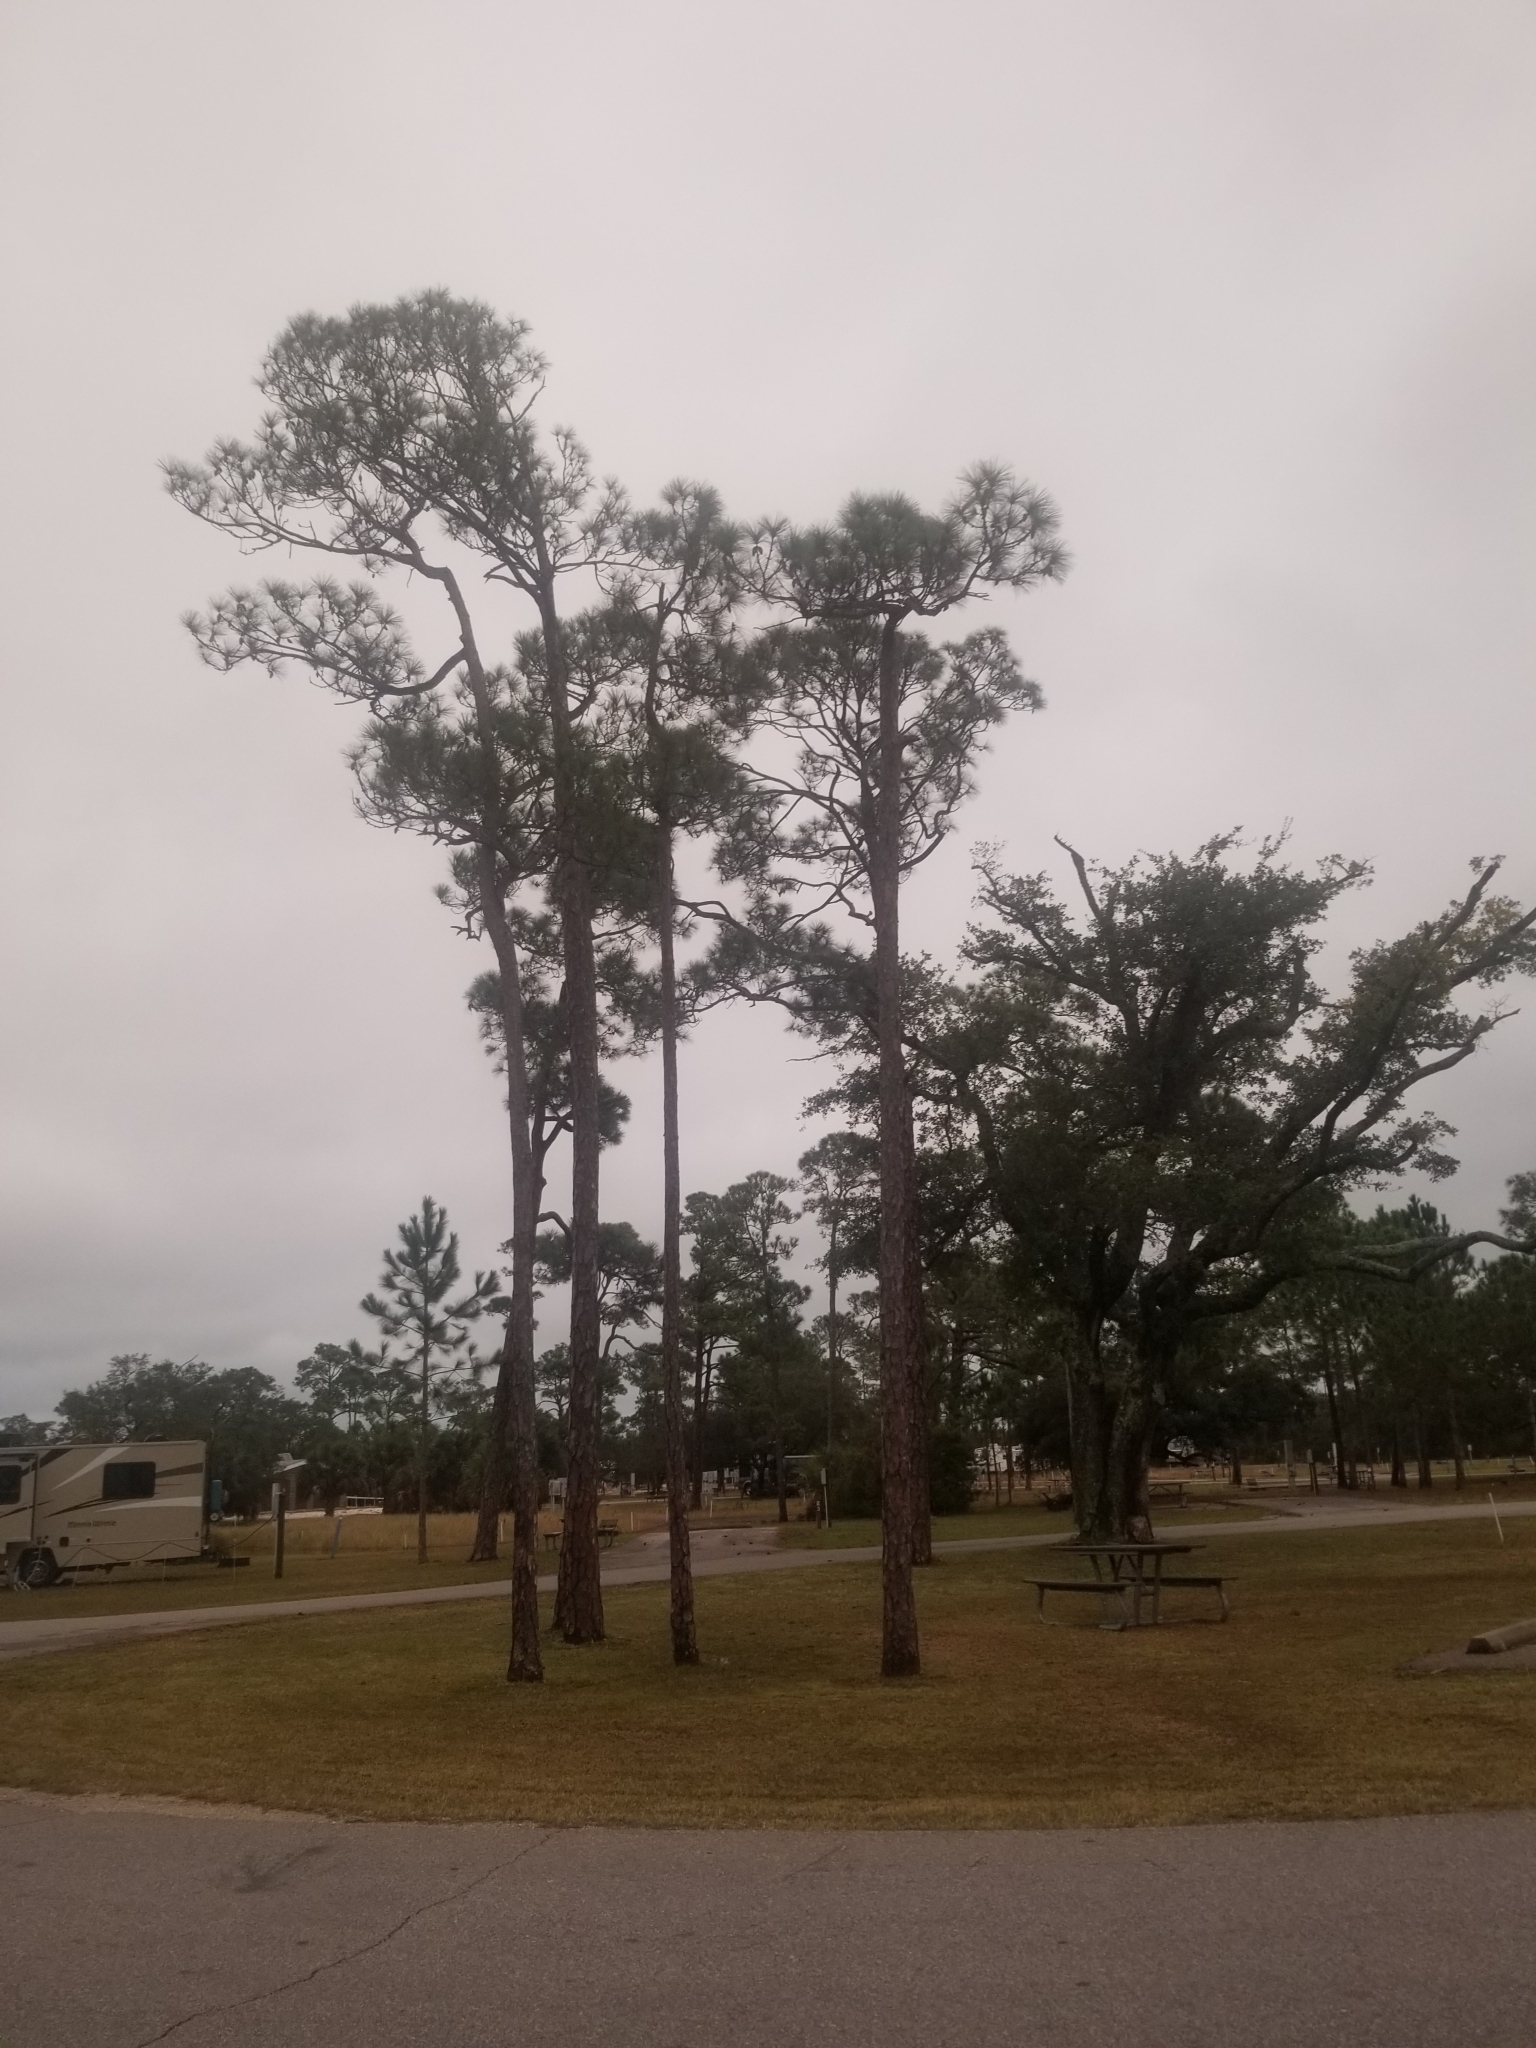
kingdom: Plantae
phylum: Tracheophyta
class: Pinopsida
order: Pinales
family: Pinaceae
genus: Pinus
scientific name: Pinus elliottii
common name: Slash pine
